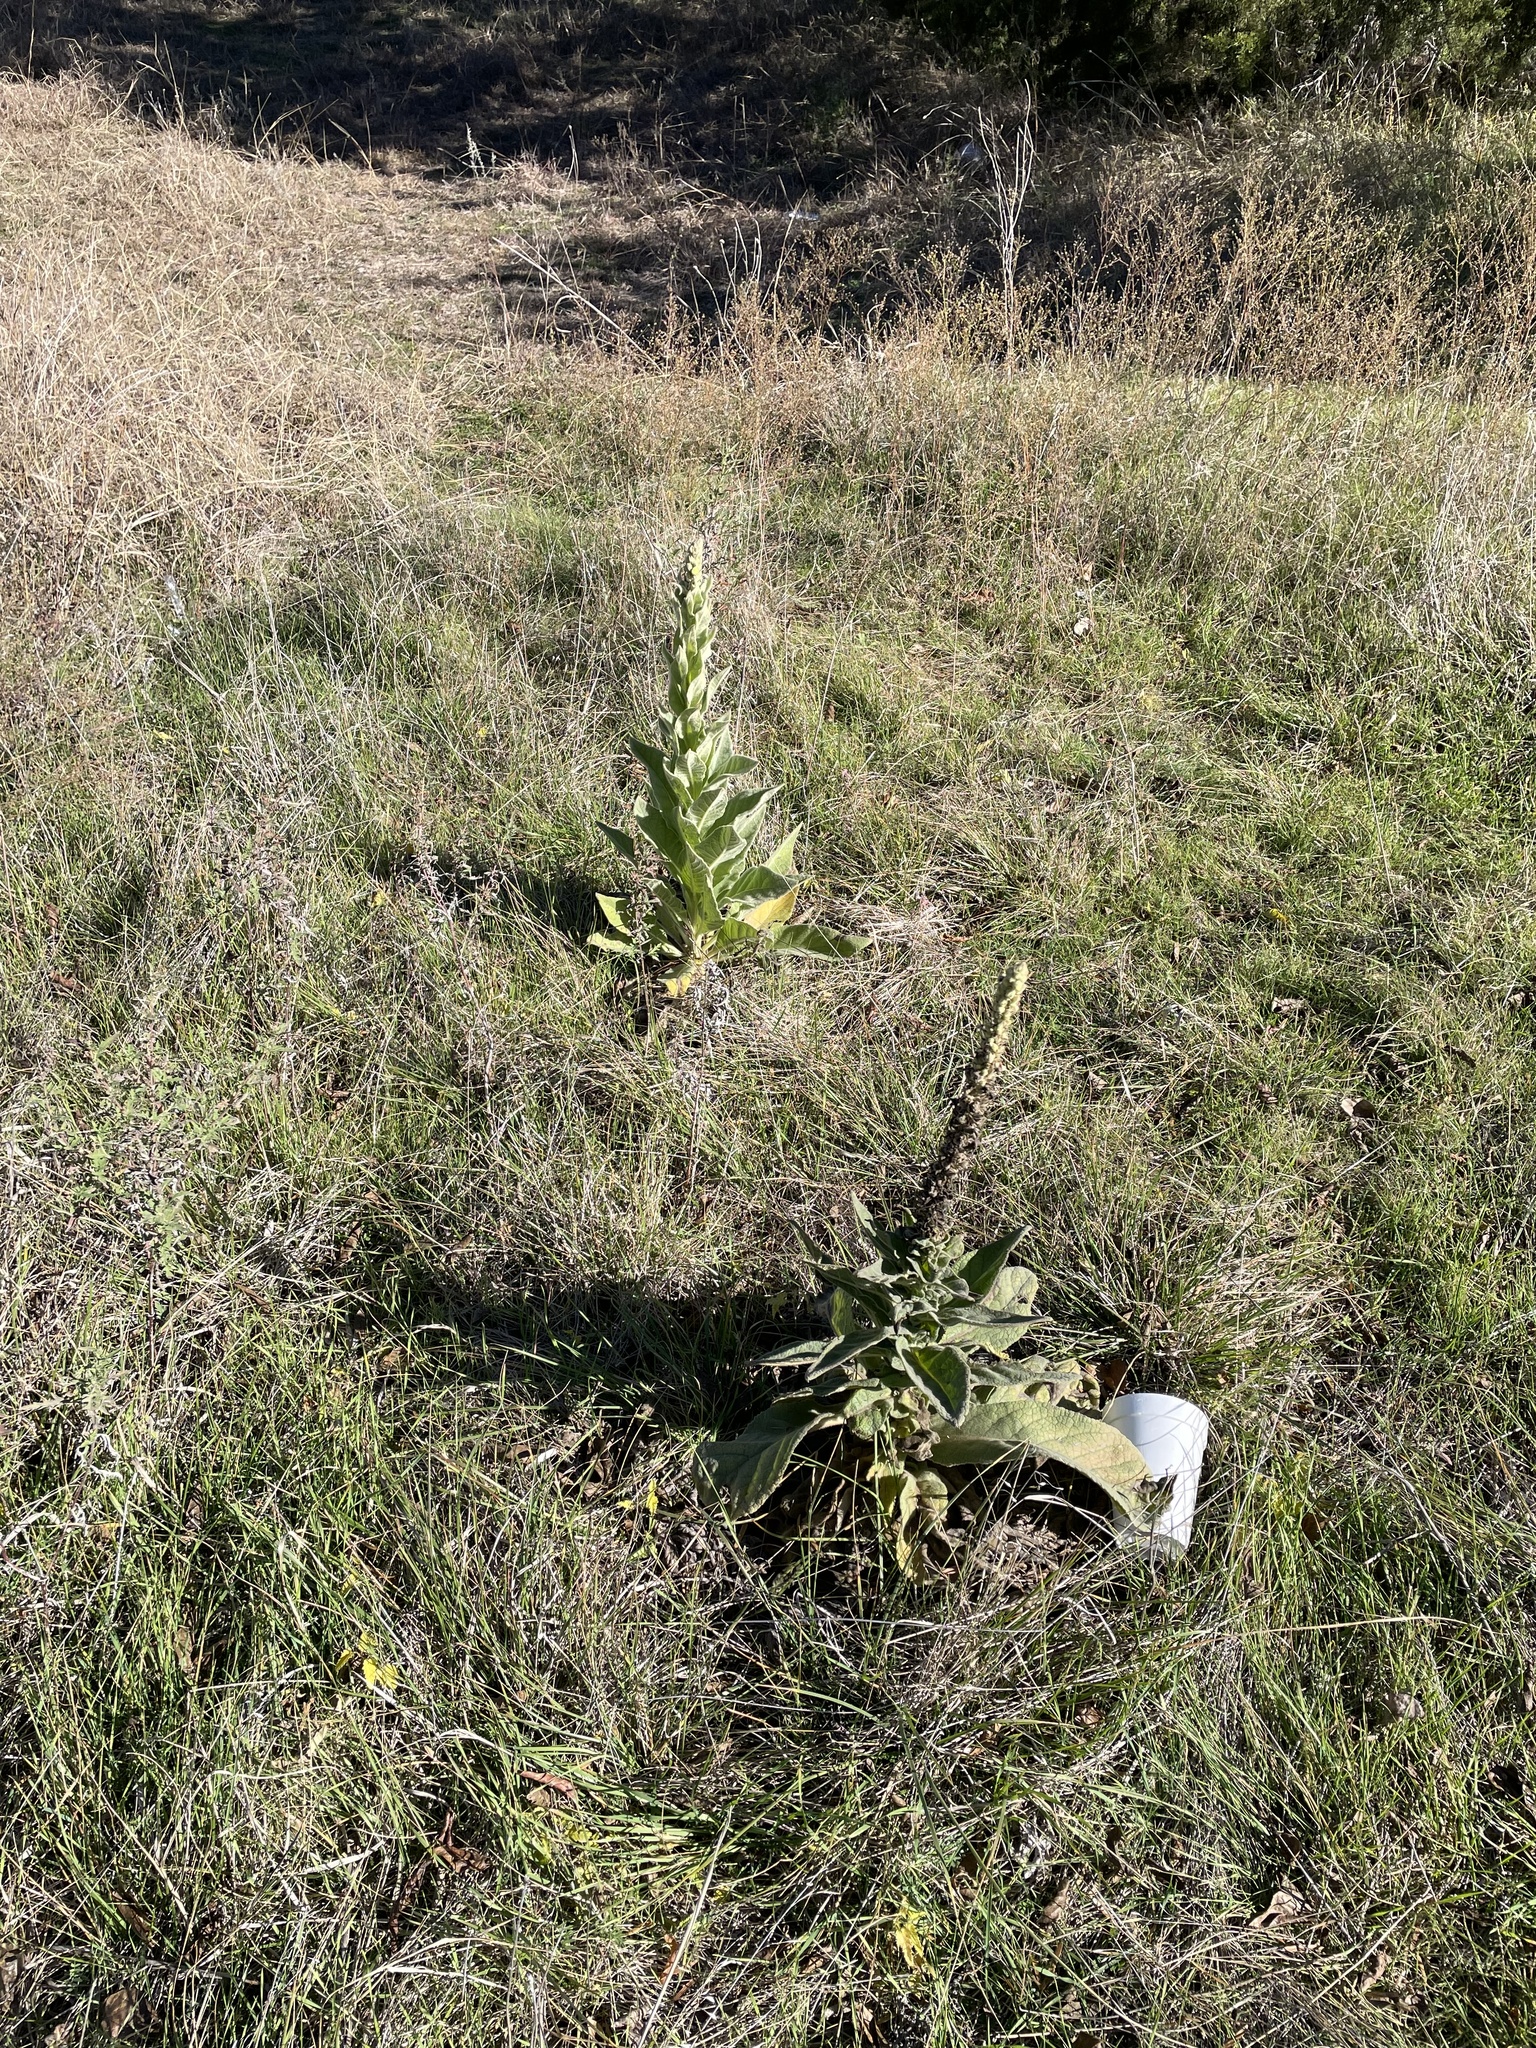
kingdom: Plantae
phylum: Tracheophyta
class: Magnoliopsida
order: Lamiales
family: Scrophulariaceae
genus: Verbascum
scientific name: Verbascum thapsus
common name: Common mullein
